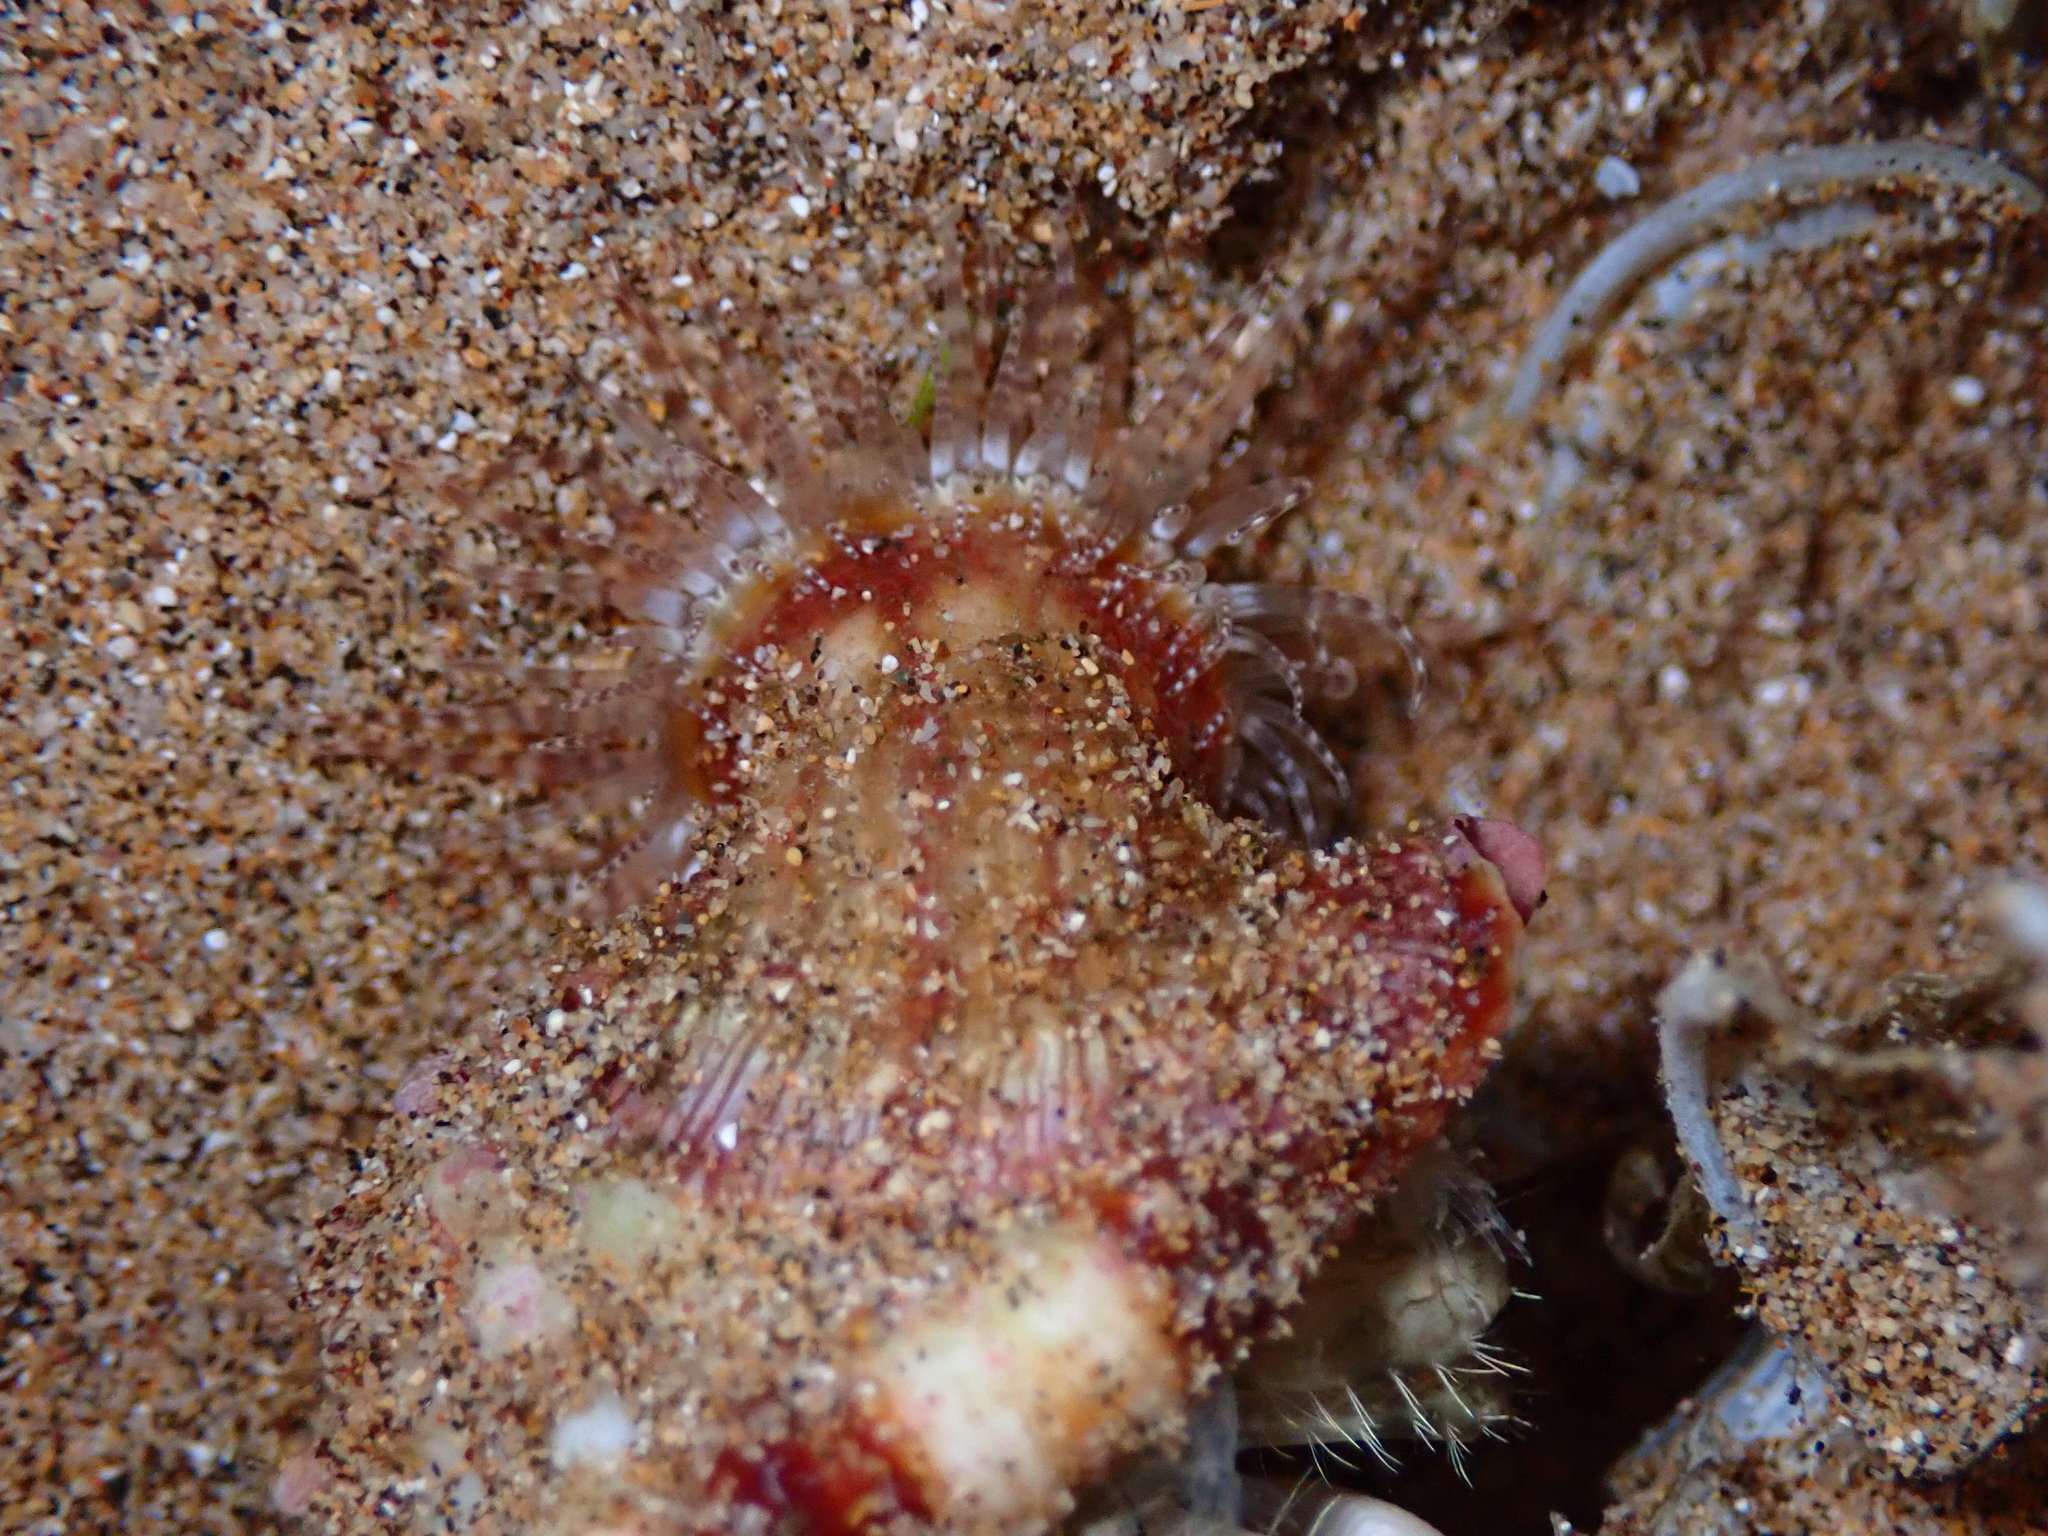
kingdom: Animalia
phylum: Cnidaria
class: Anthozoa
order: Actiniaria
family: Hormathiidae
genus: Calliactis
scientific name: Calliactis polypus
